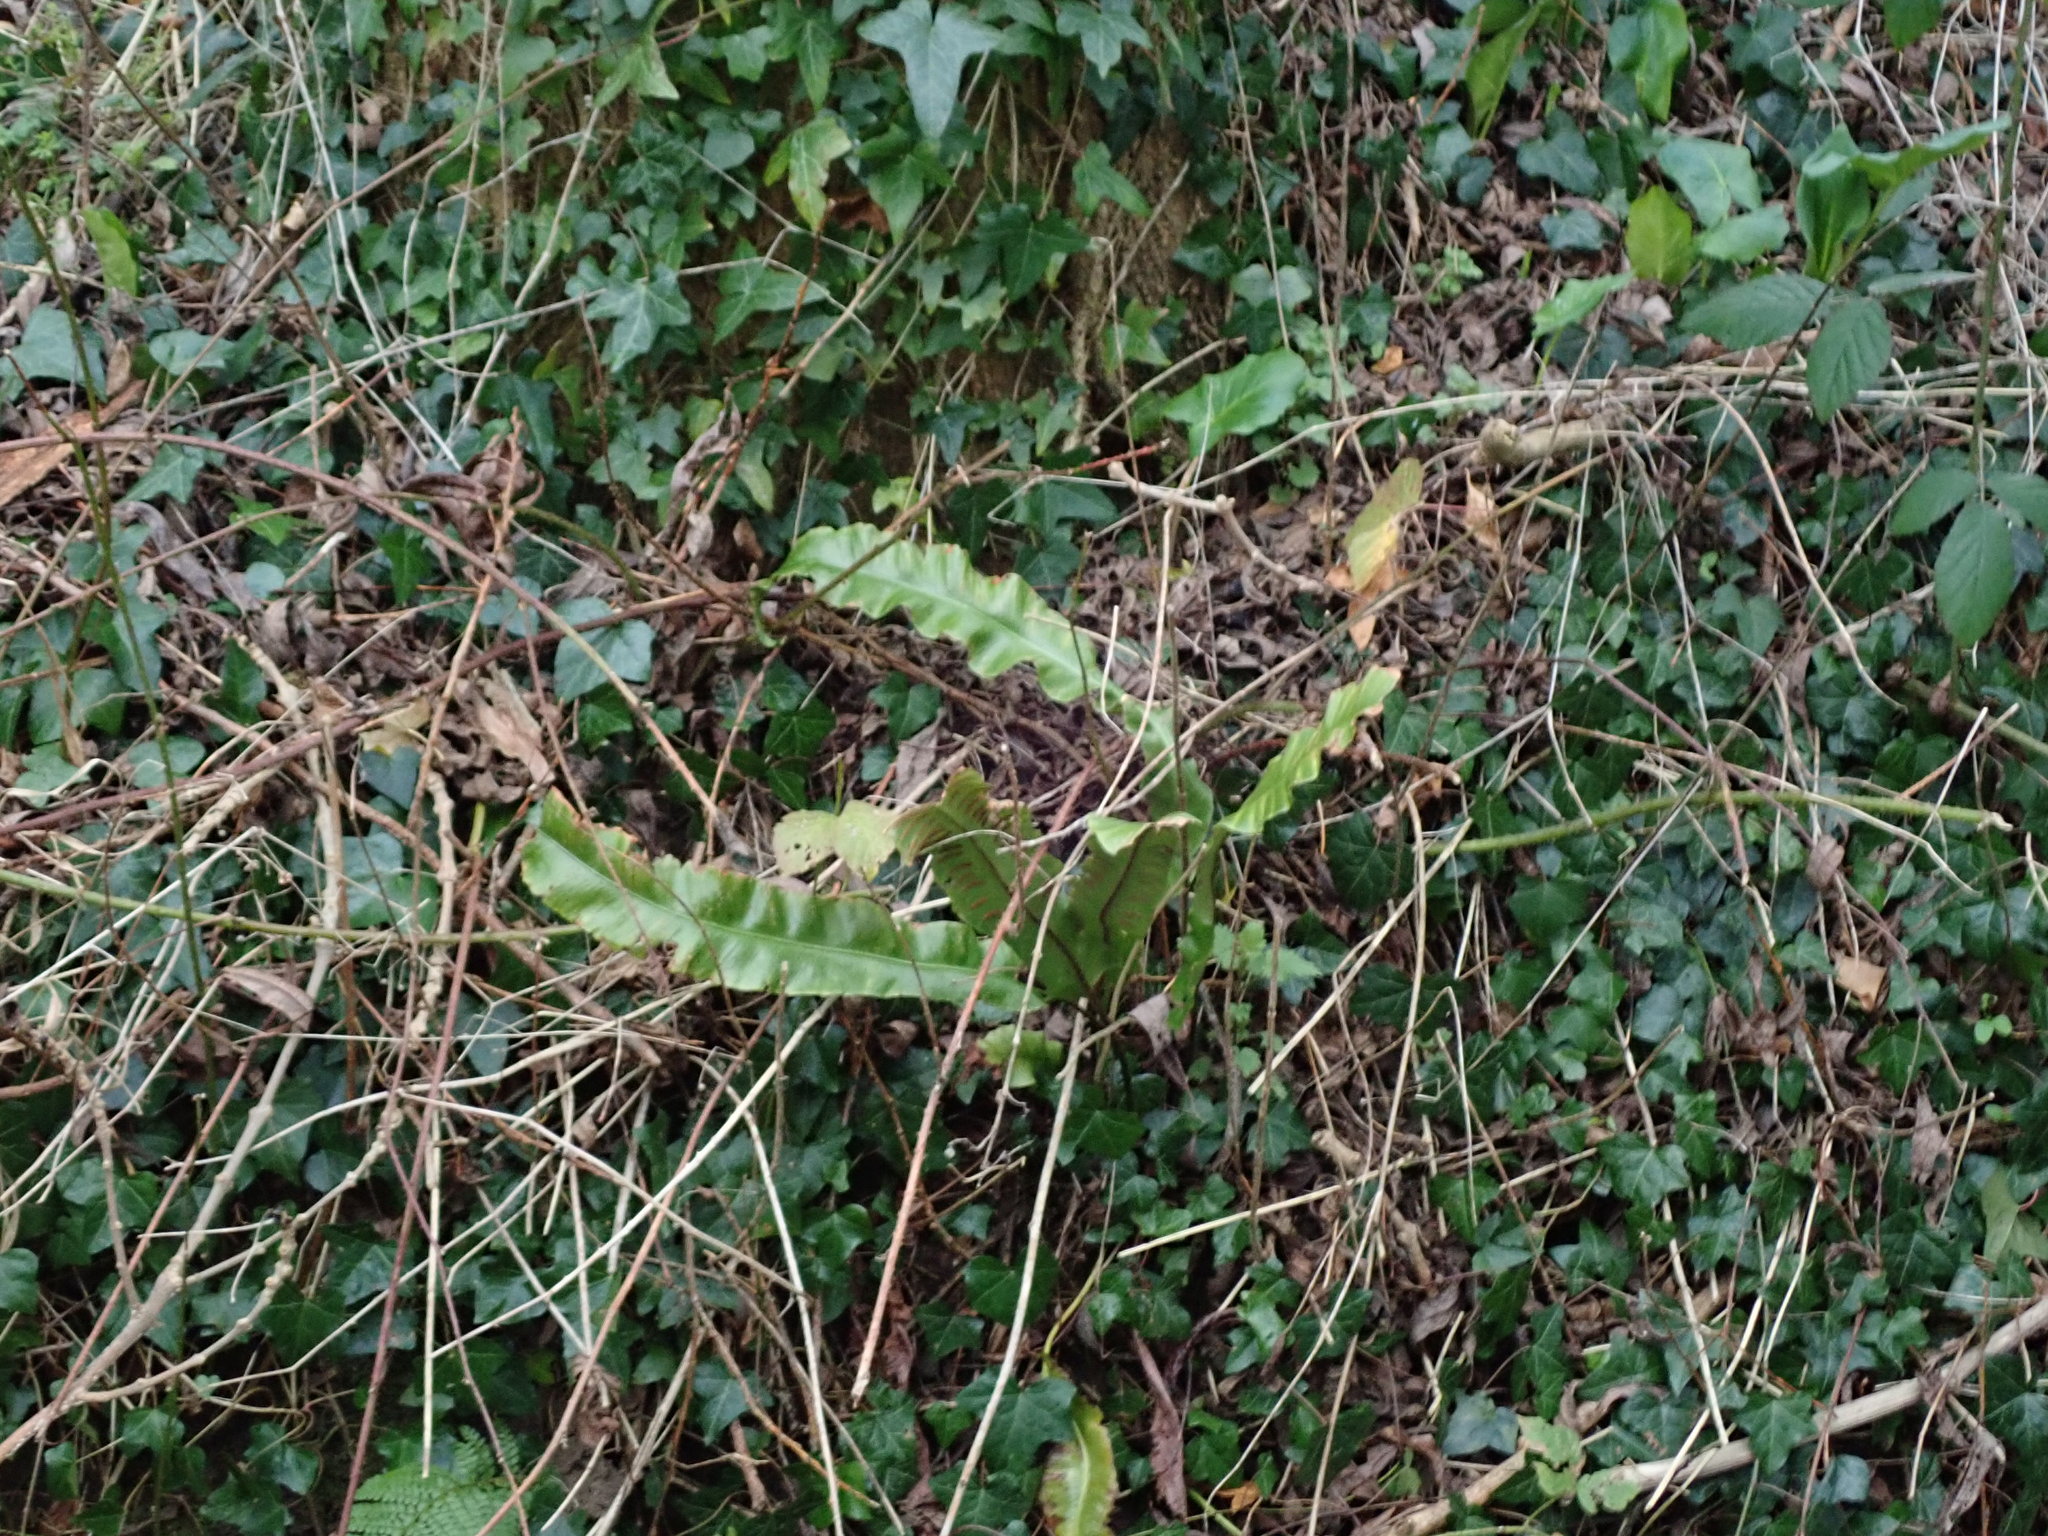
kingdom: Plantae
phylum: Tracheophyta
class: Polypodiopsida
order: Polypodiales
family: Aspleniaceae
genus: Asplenium
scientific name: Asplenium scolopendrium
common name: Hart's-tongue fern
